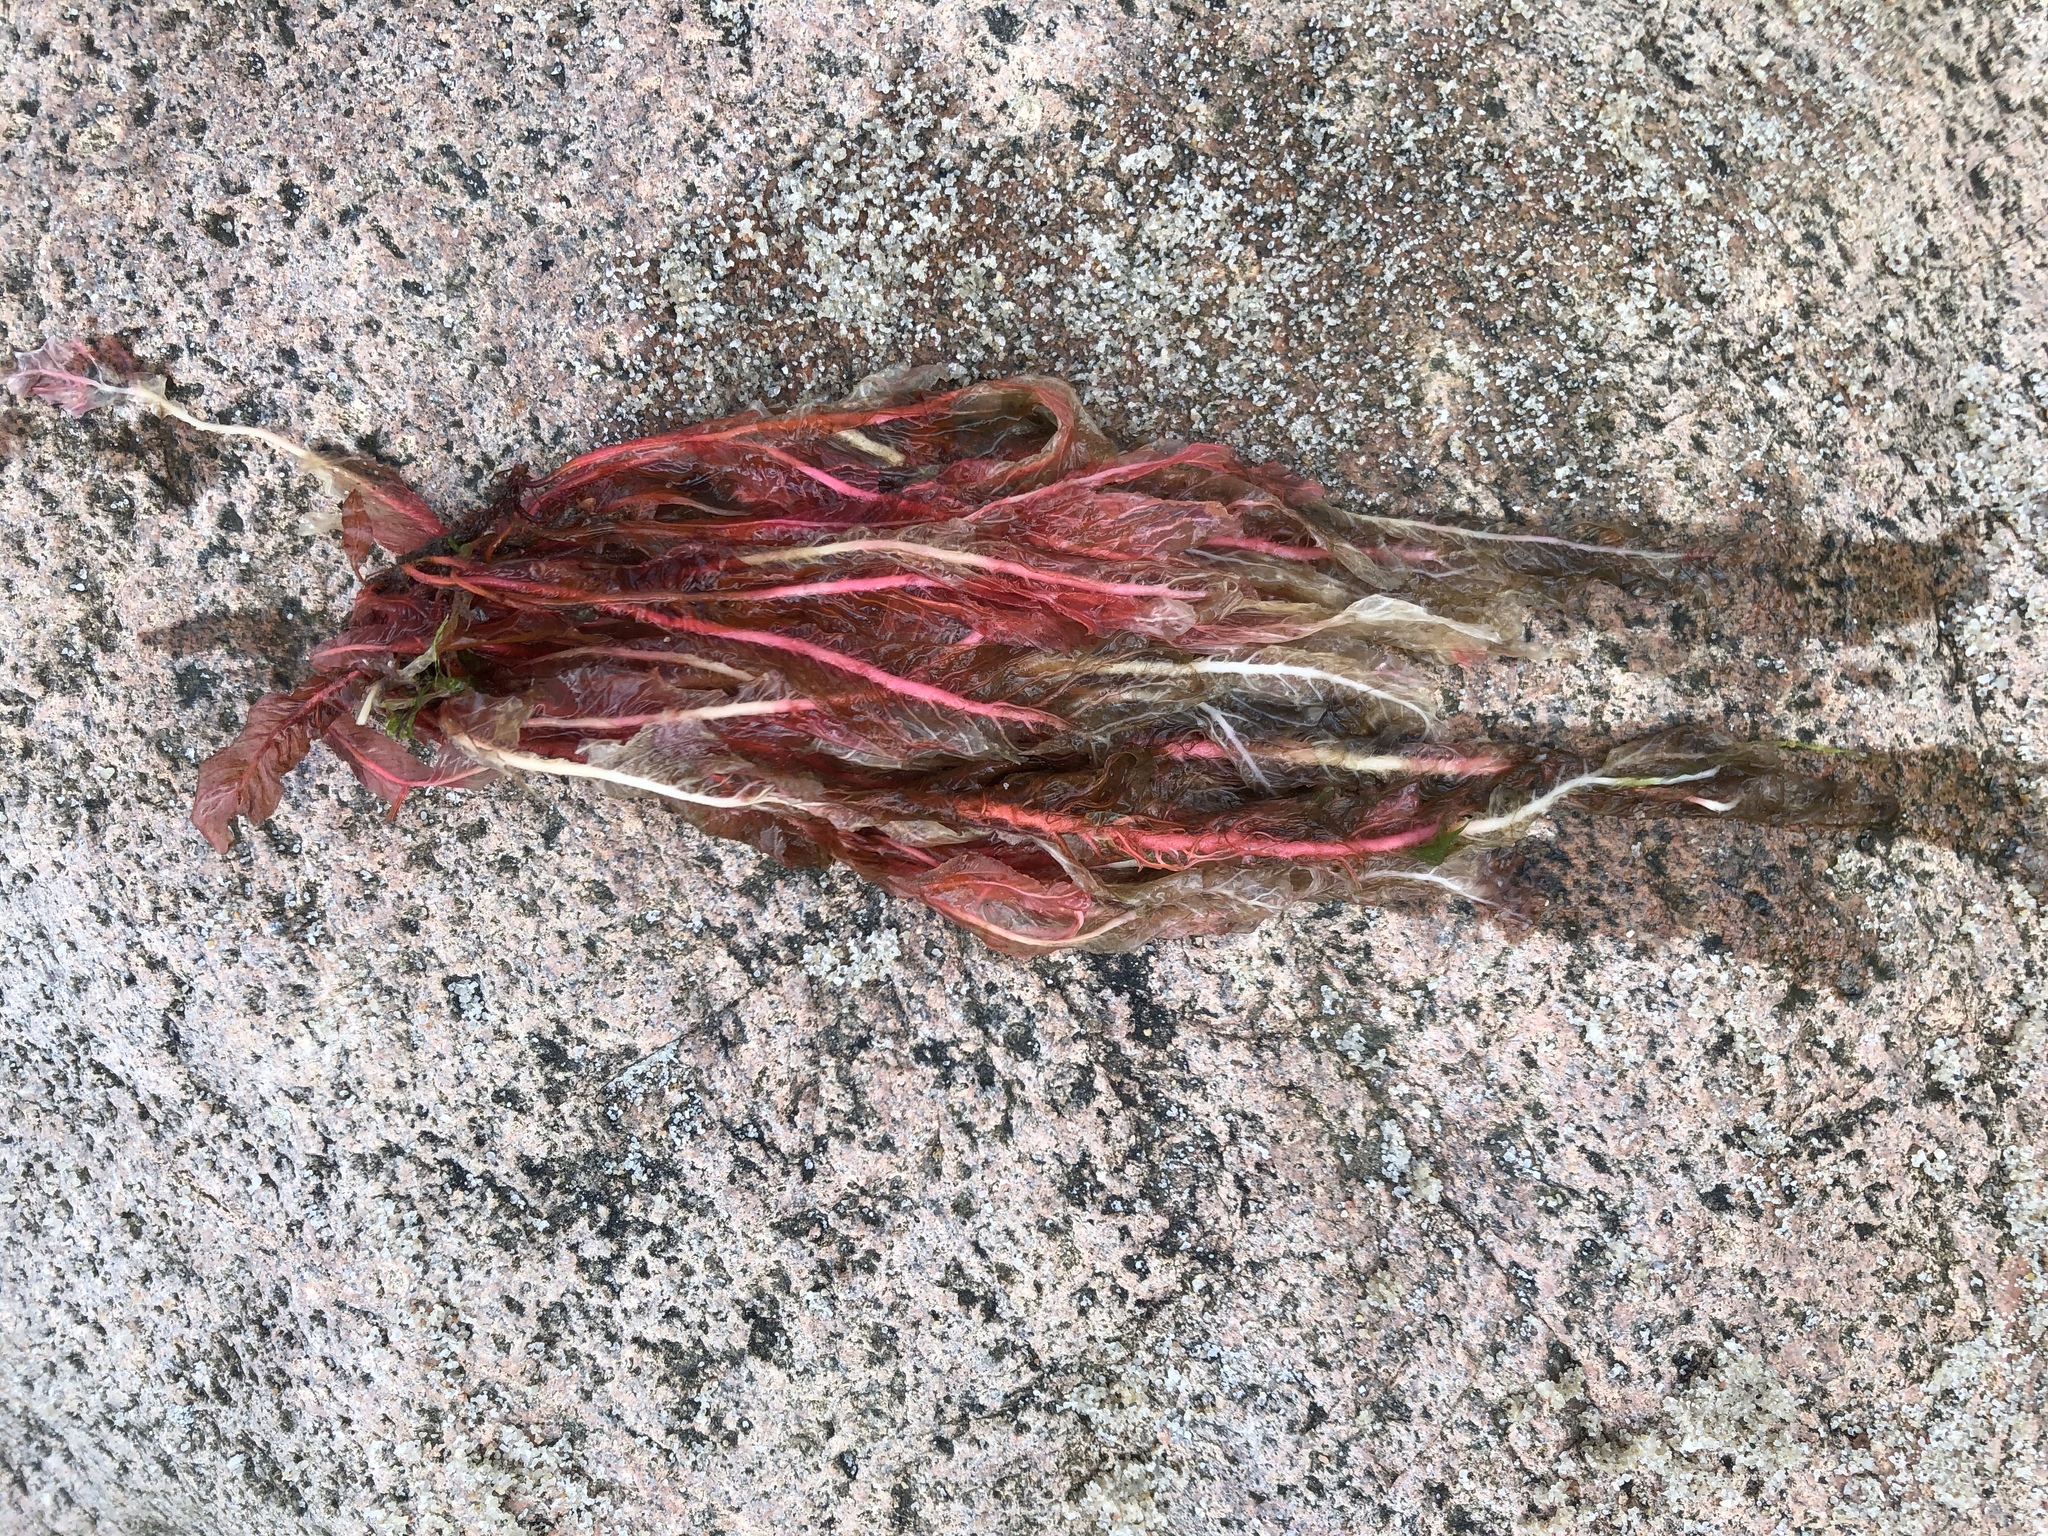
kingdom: Plantae
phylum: Rhodophyta
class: Florideophyceae
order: Ceramiales
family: Delesseriaceae
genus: Delesseria
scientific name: Delesseria sanguinea
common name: Sea beech
